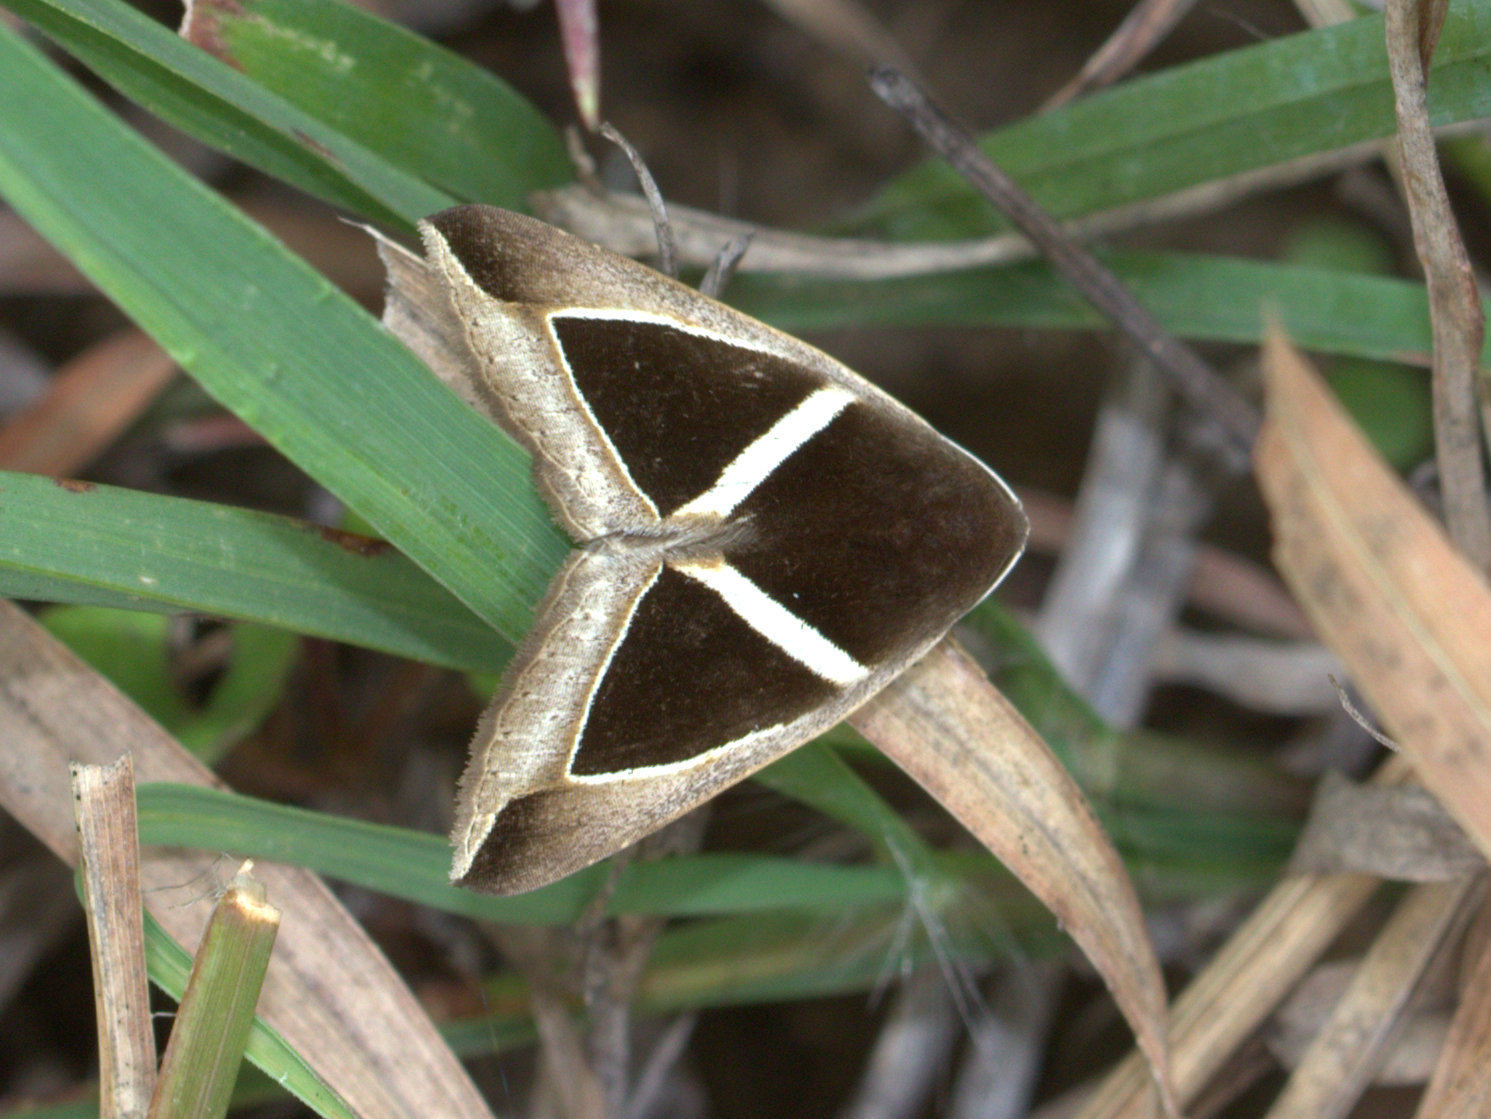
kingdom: Animalia
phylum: Arthropoda
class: Insecta
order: Lepidoptera
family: Erebidae
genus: Chalciope
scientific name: Chalciope mygdon
